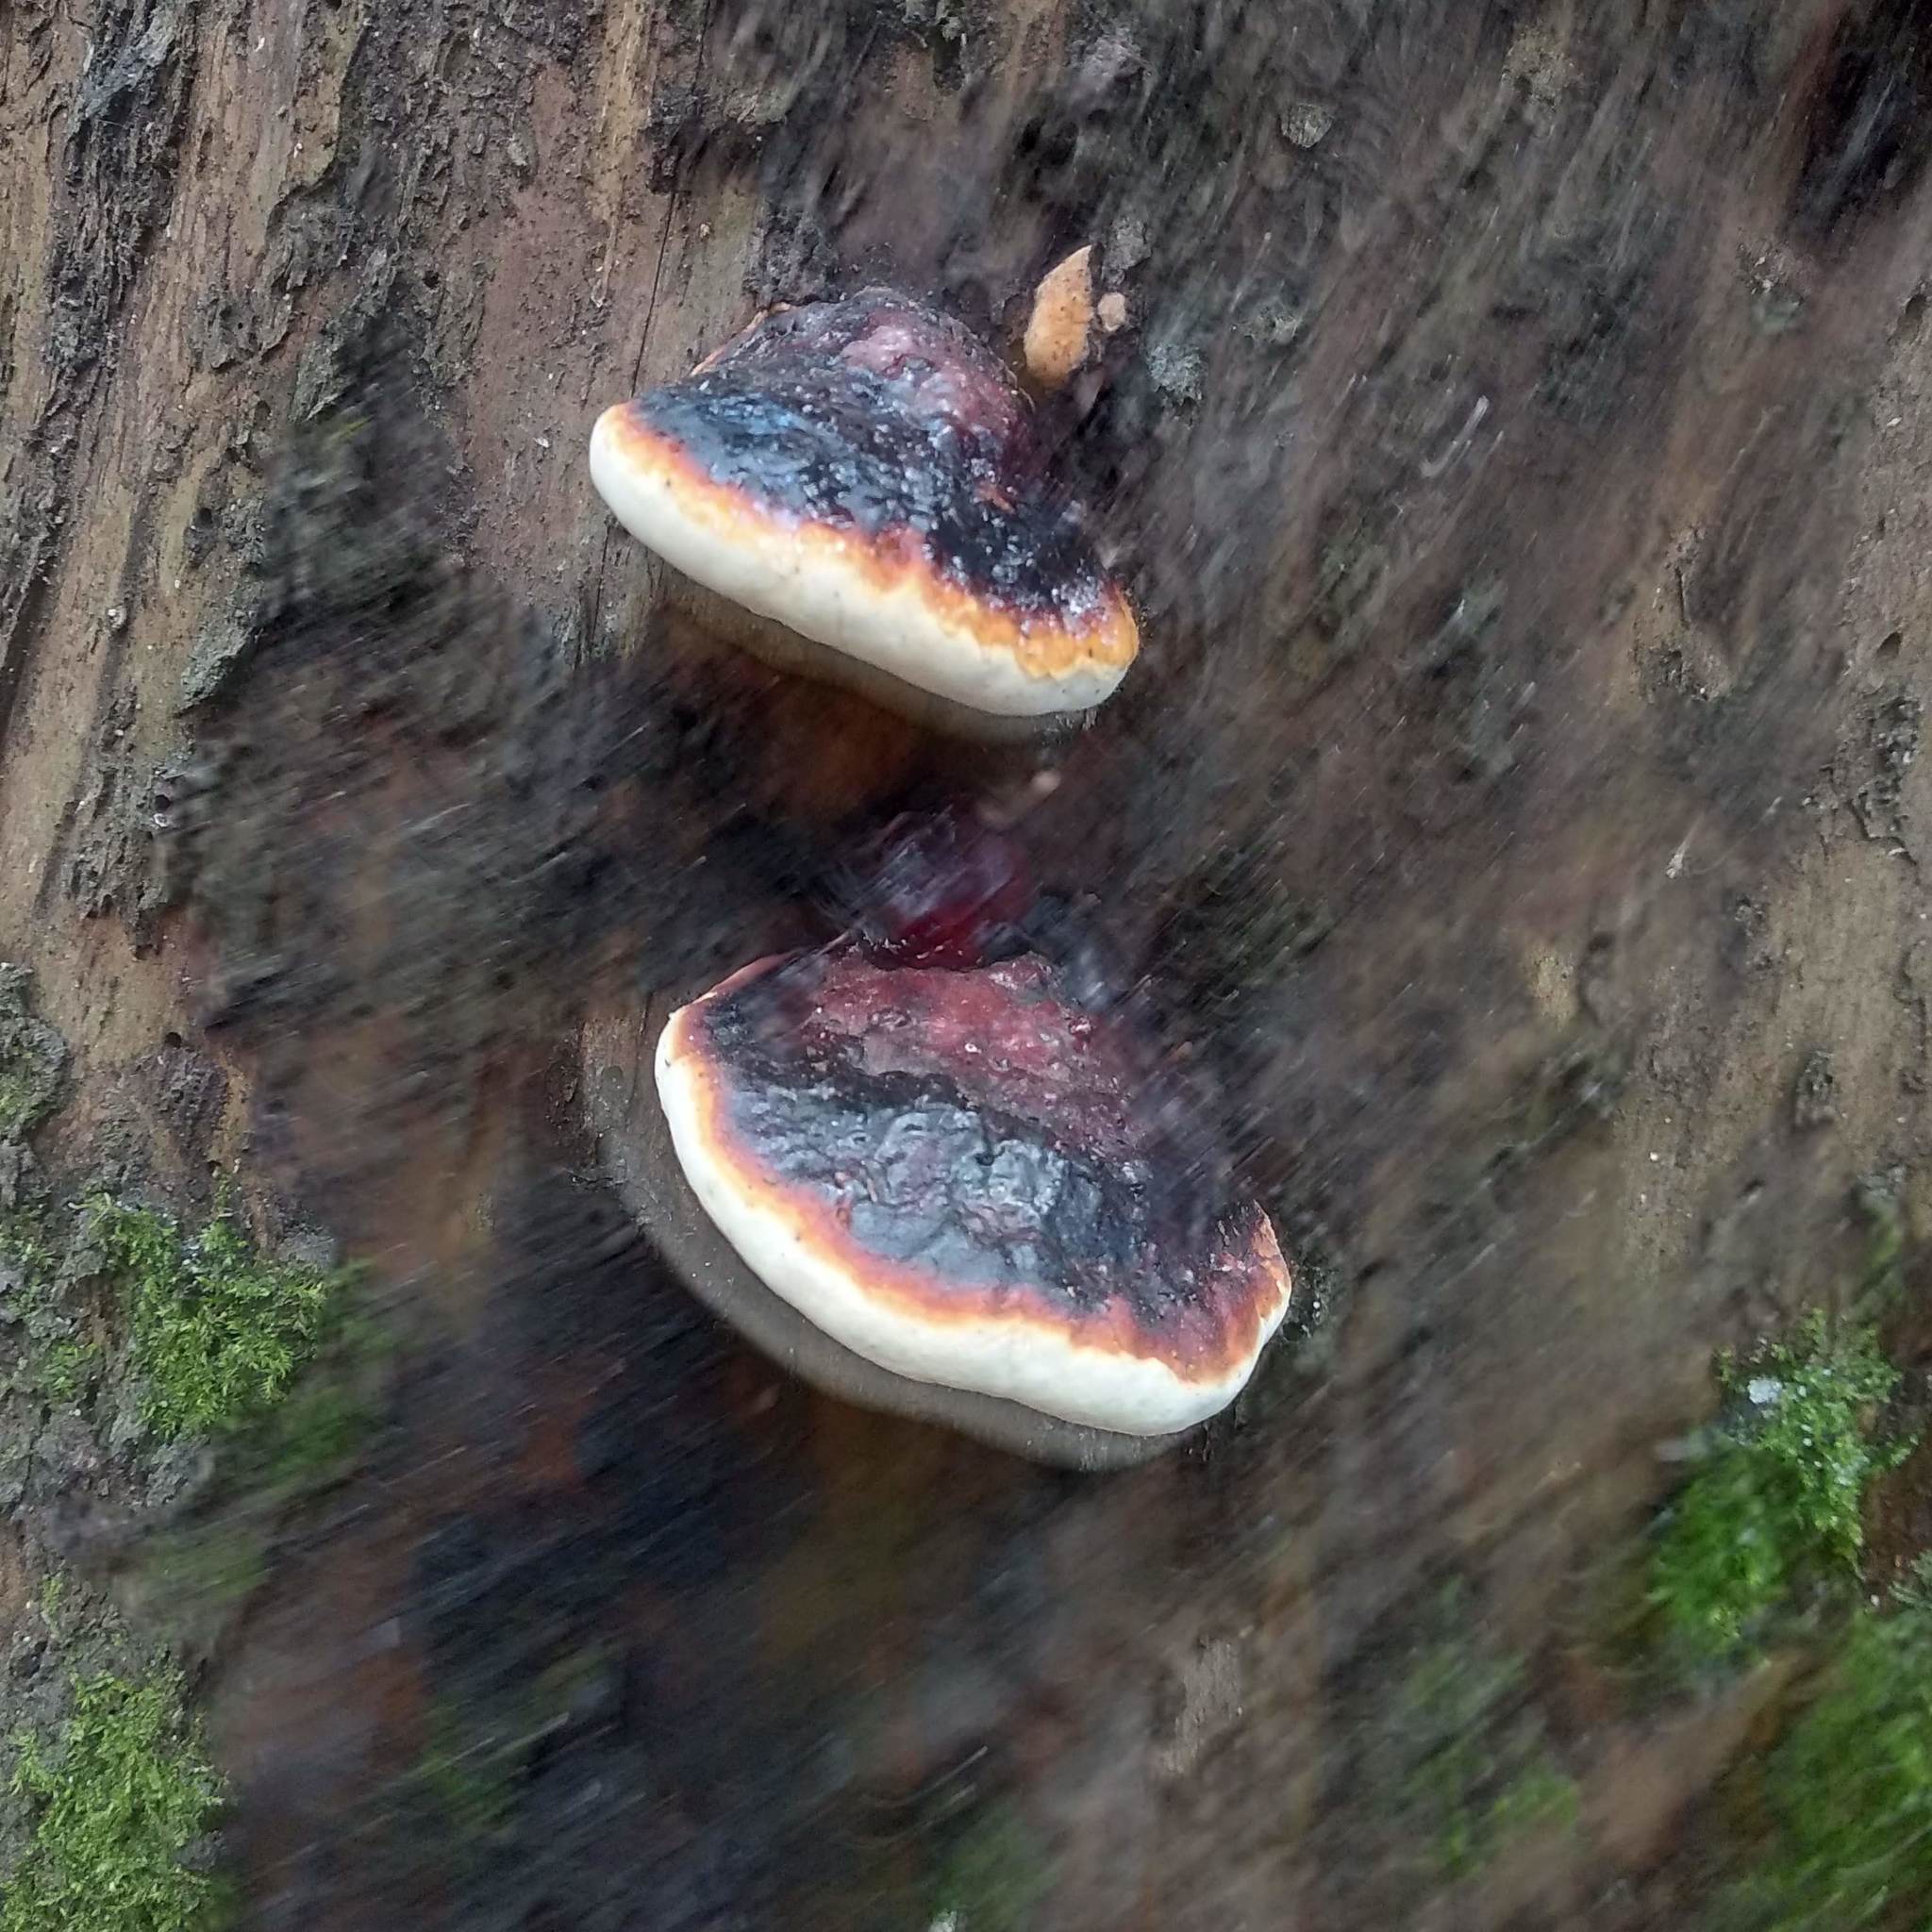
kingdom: Fungi
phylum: Basidiomycota
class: Agaricomycetes
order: Polyporales
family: Fomitopsidaceae
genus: Fomitopsis
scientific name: Fomitopsis pinicola
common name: Red-belted bracket
